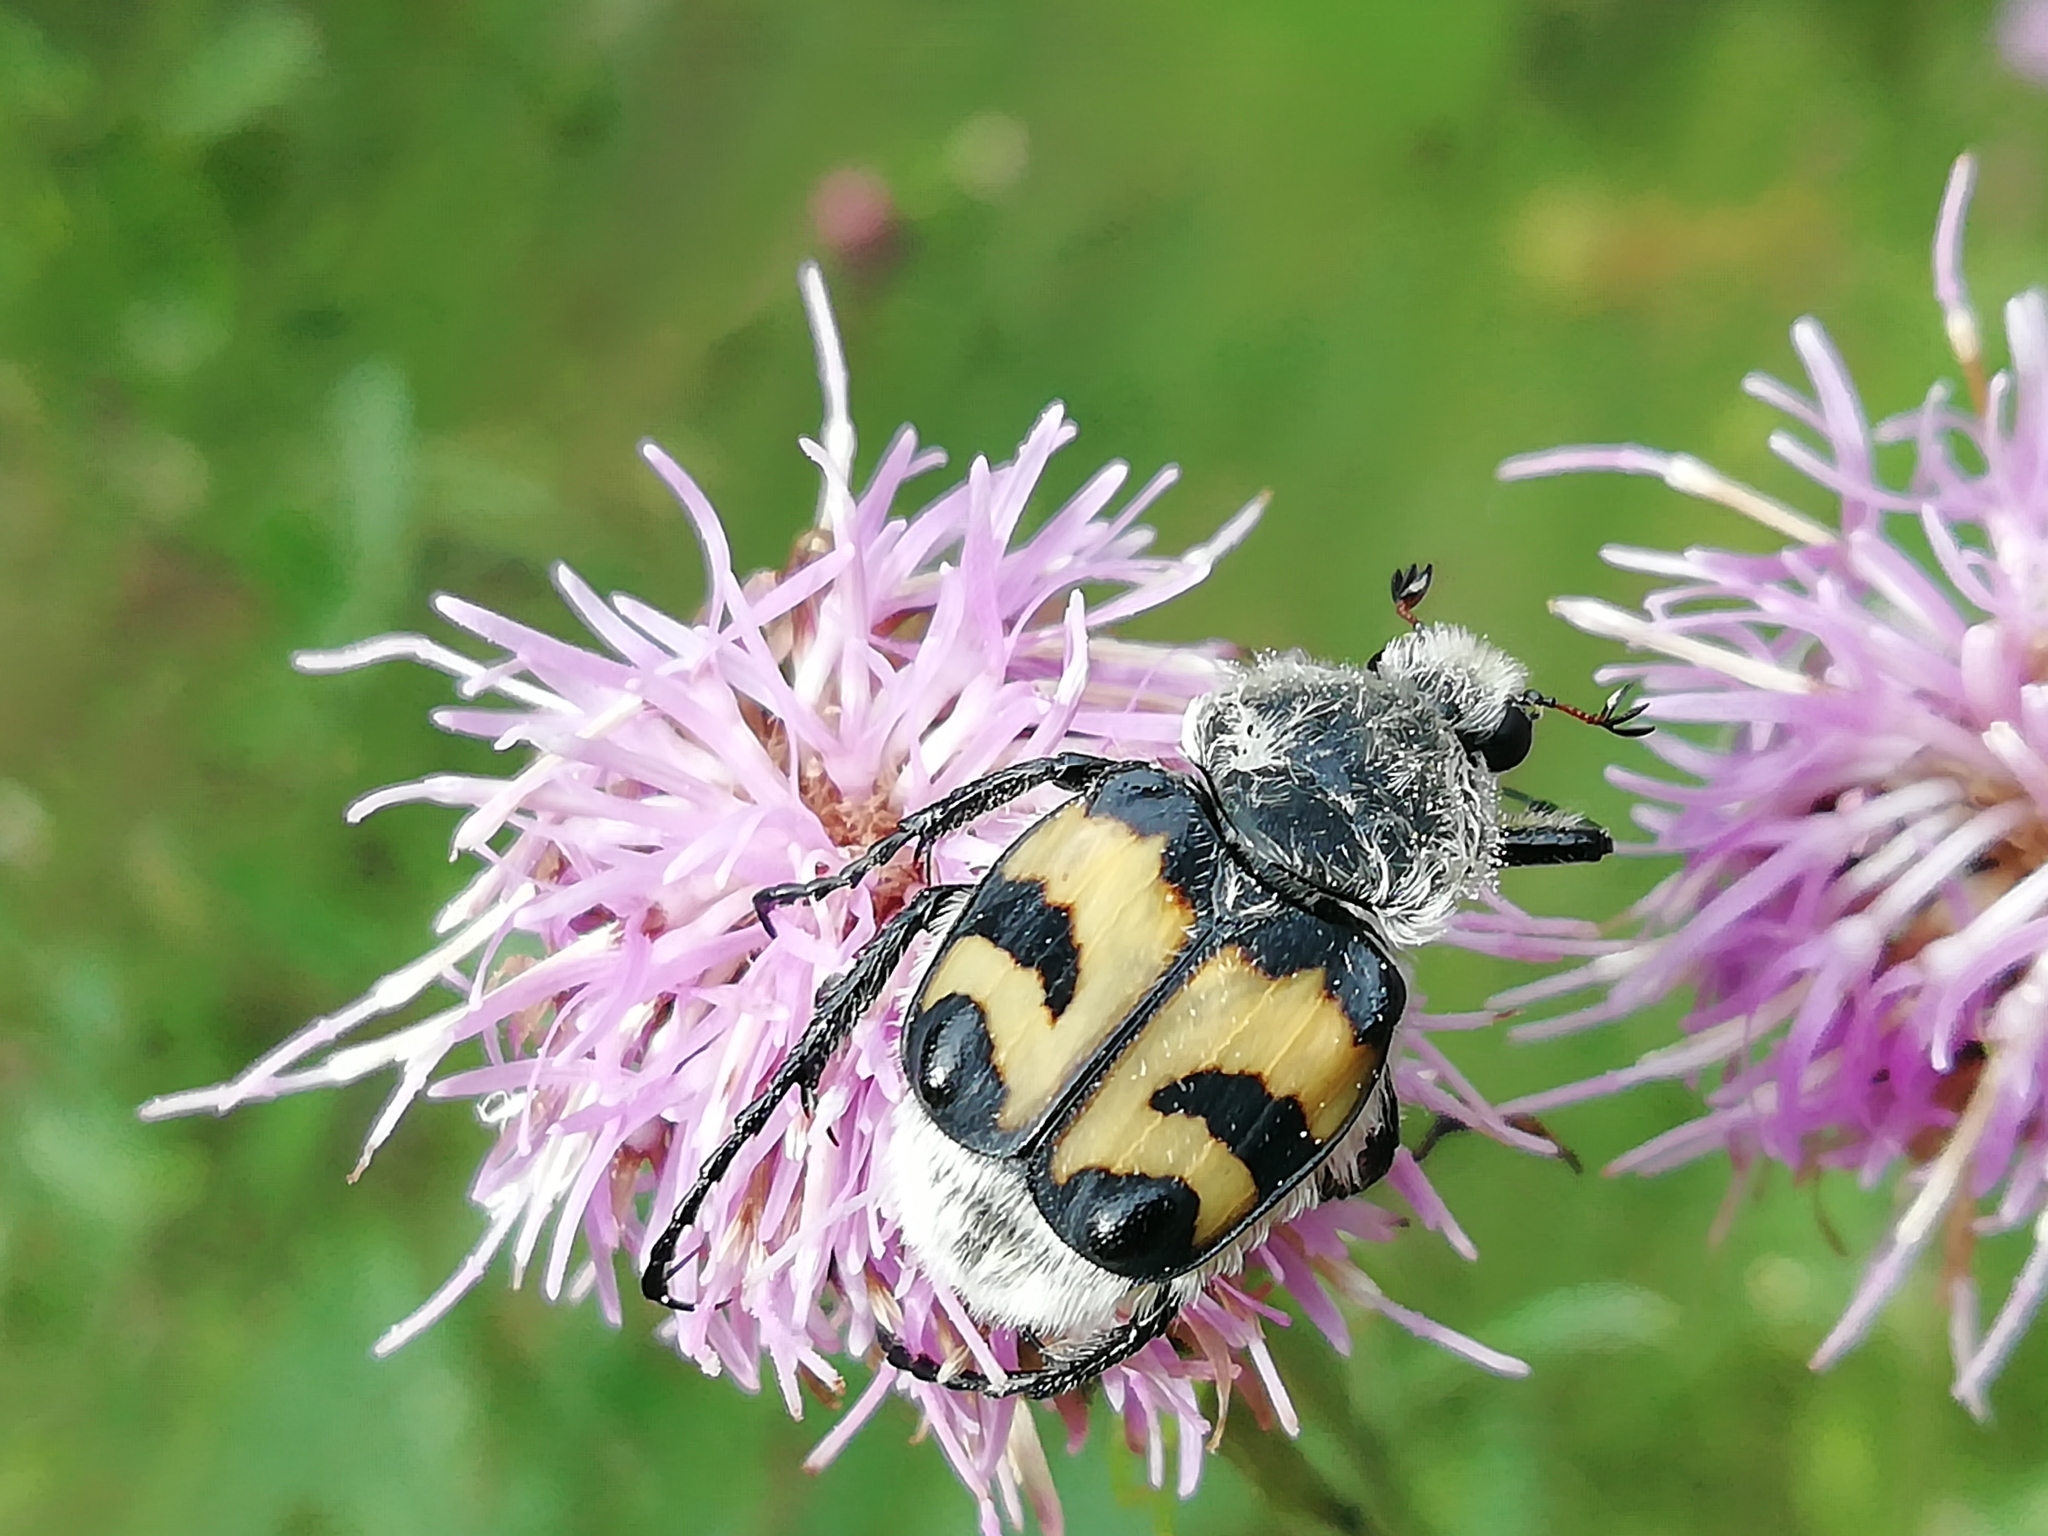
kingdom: Animalia
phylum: Arthropoda
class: Insecta
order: Coleoptera
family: Scarabaeidae
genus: Trichius
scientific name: Trichius fasciatus
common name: Bee beetle
